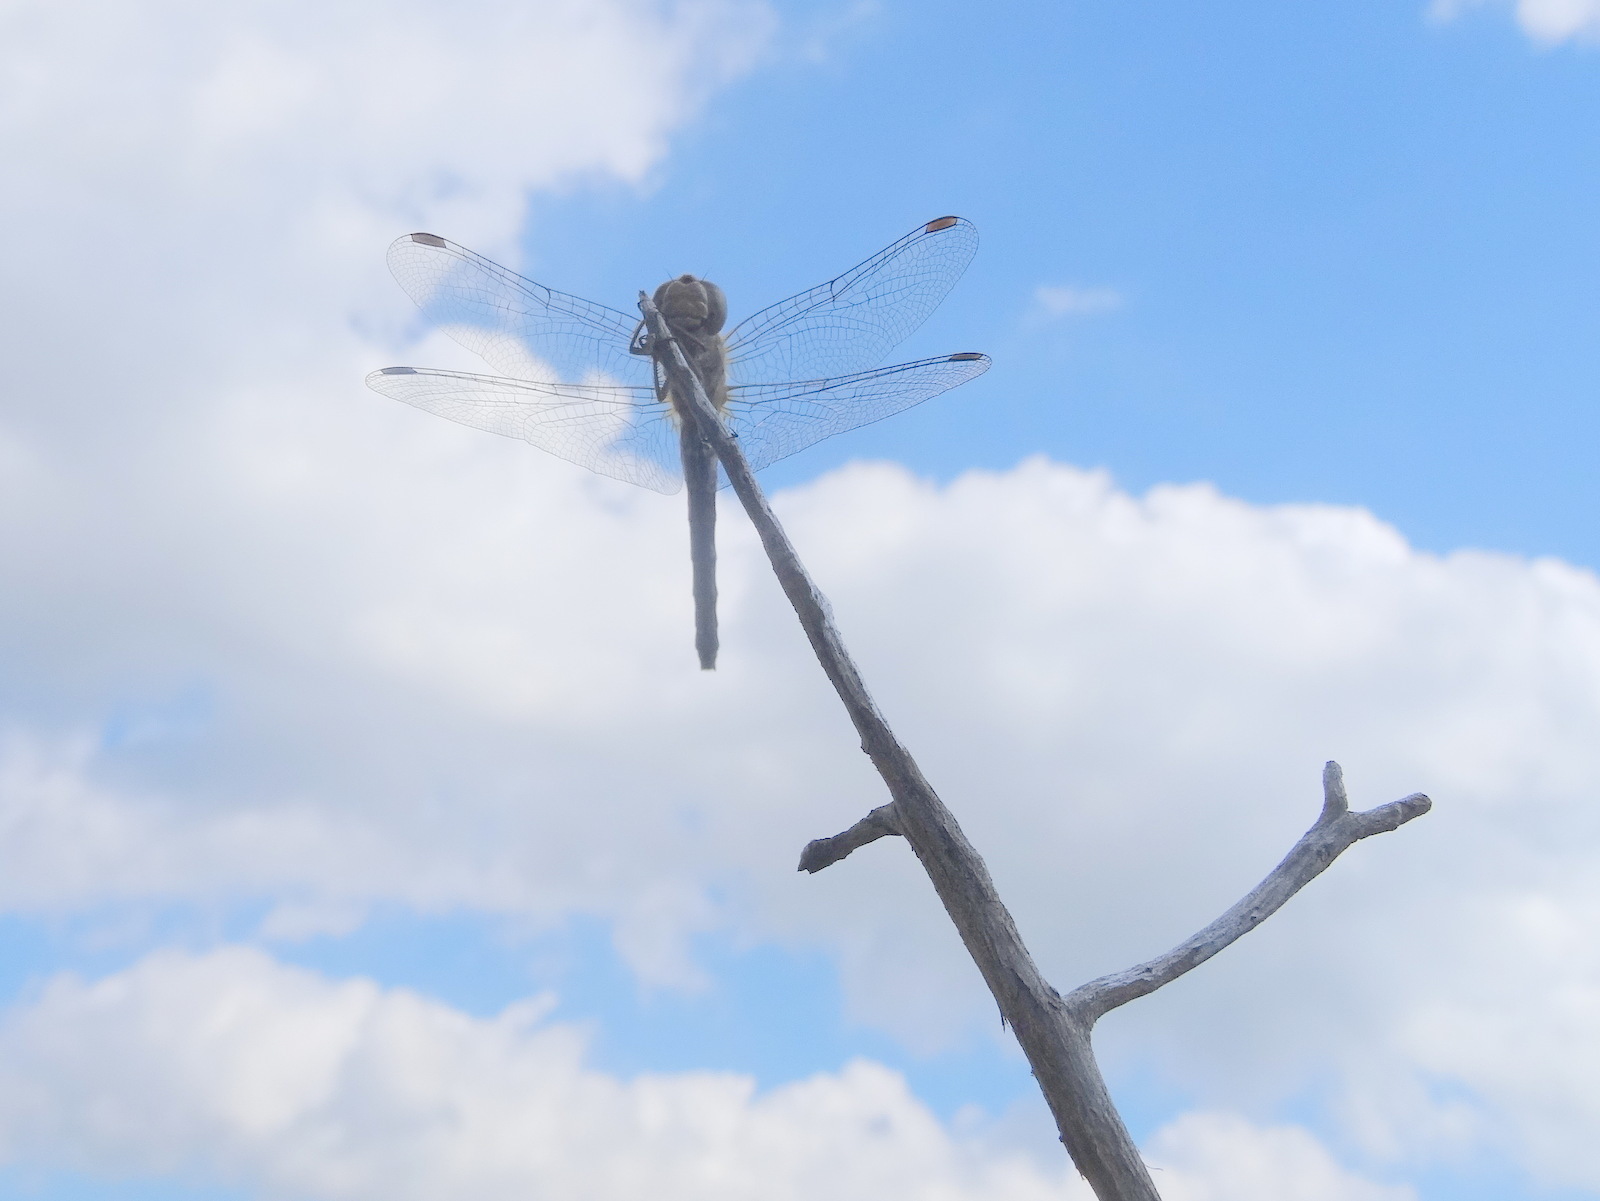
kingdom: Animalia
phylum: Arthropoda
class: Insecta
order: Odonata
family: Libellulidae
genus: Sympetrum
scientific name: Sympetrum striolatum
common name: Common darter
